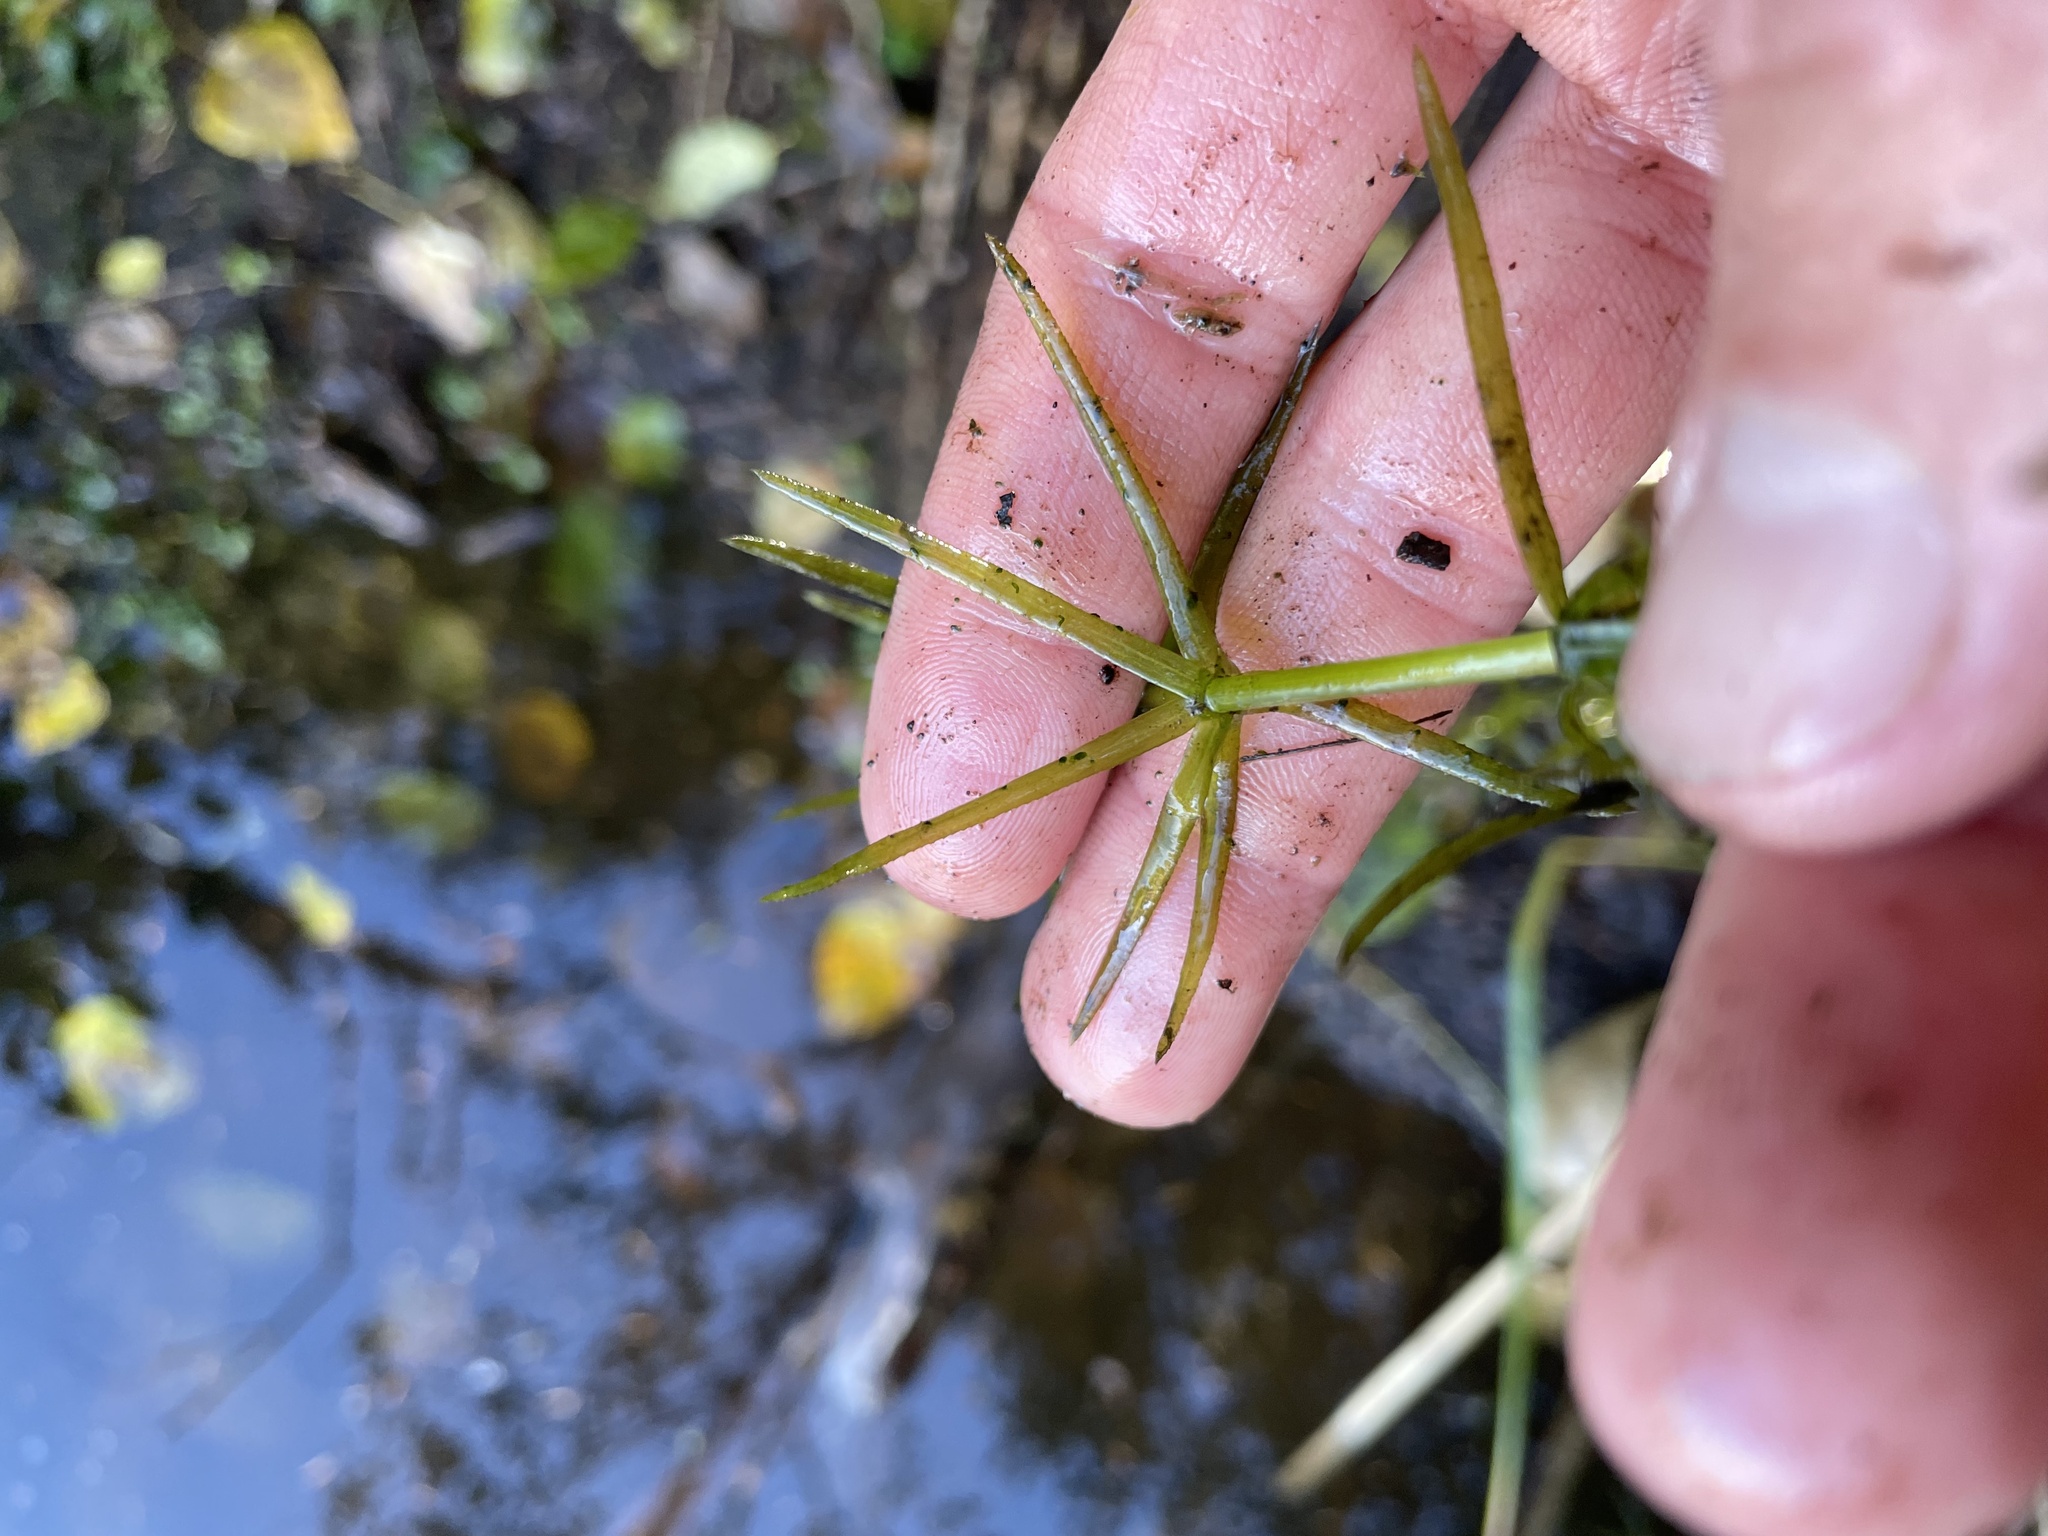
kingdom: Plantae
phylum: Tracheophyta
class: Liliopsida
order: Alismatales
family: Hydrocharitaceae
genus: Elodea
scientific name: Elodea densa
